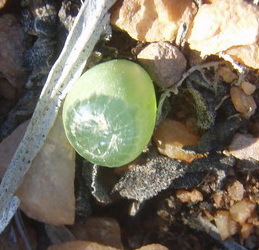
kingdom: Plantae
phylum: Tracheophyta
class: Liliopsida
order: Asparagales
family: Asphodelaceae
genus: Bulbine
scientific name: Bulbine mesembryanthoides
